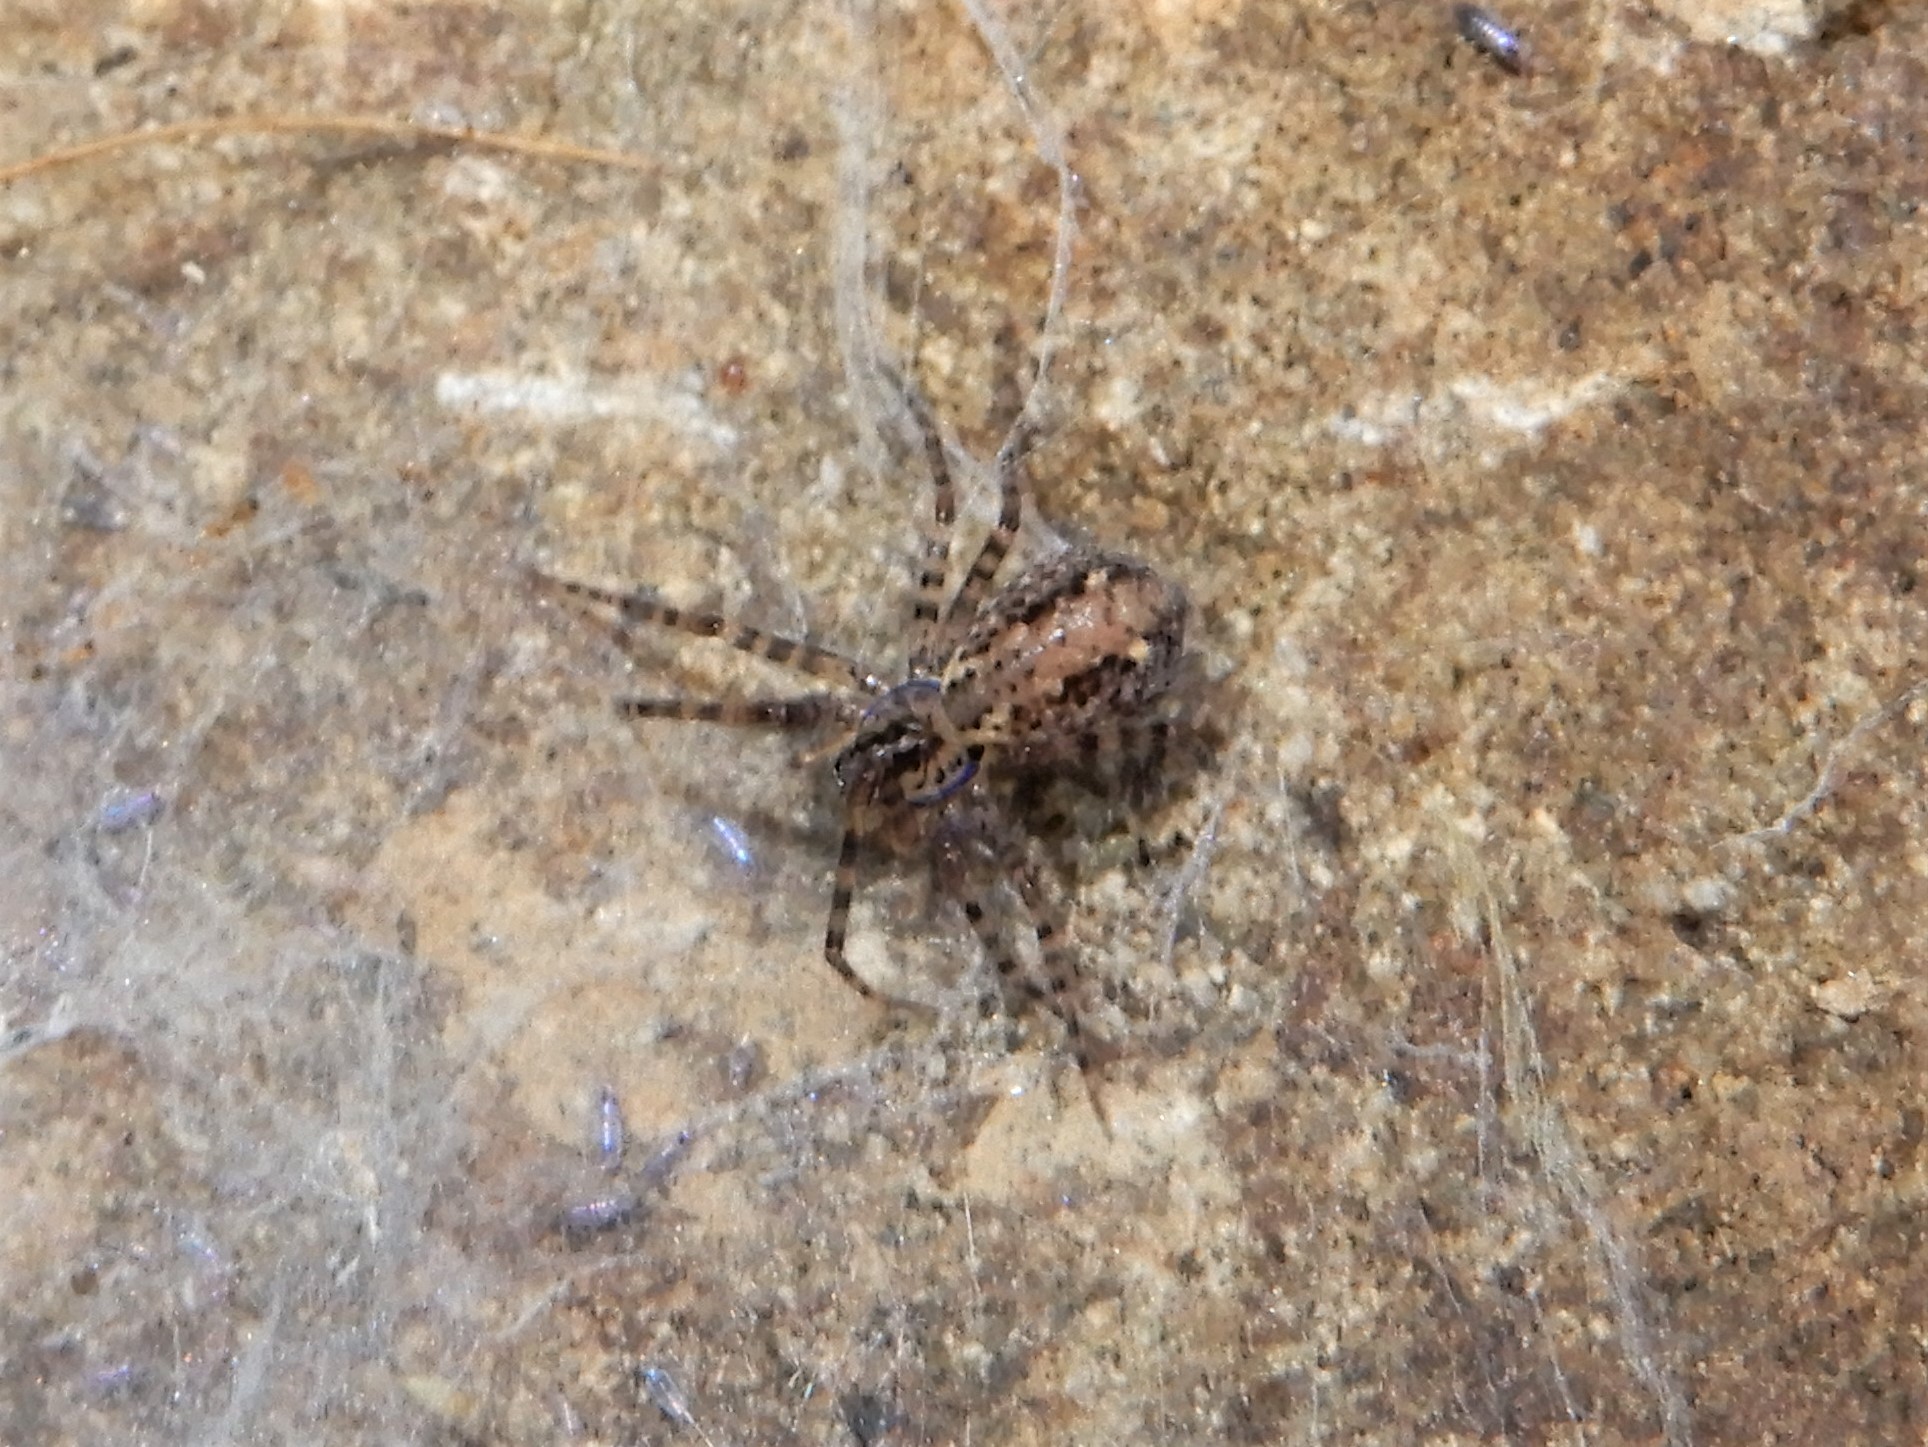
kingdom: Animalia
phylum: Arthropoda
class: Arachnida
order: Araneae
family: Stiphidiidae
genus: Stiphidion
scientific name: Stiphidion facetum
